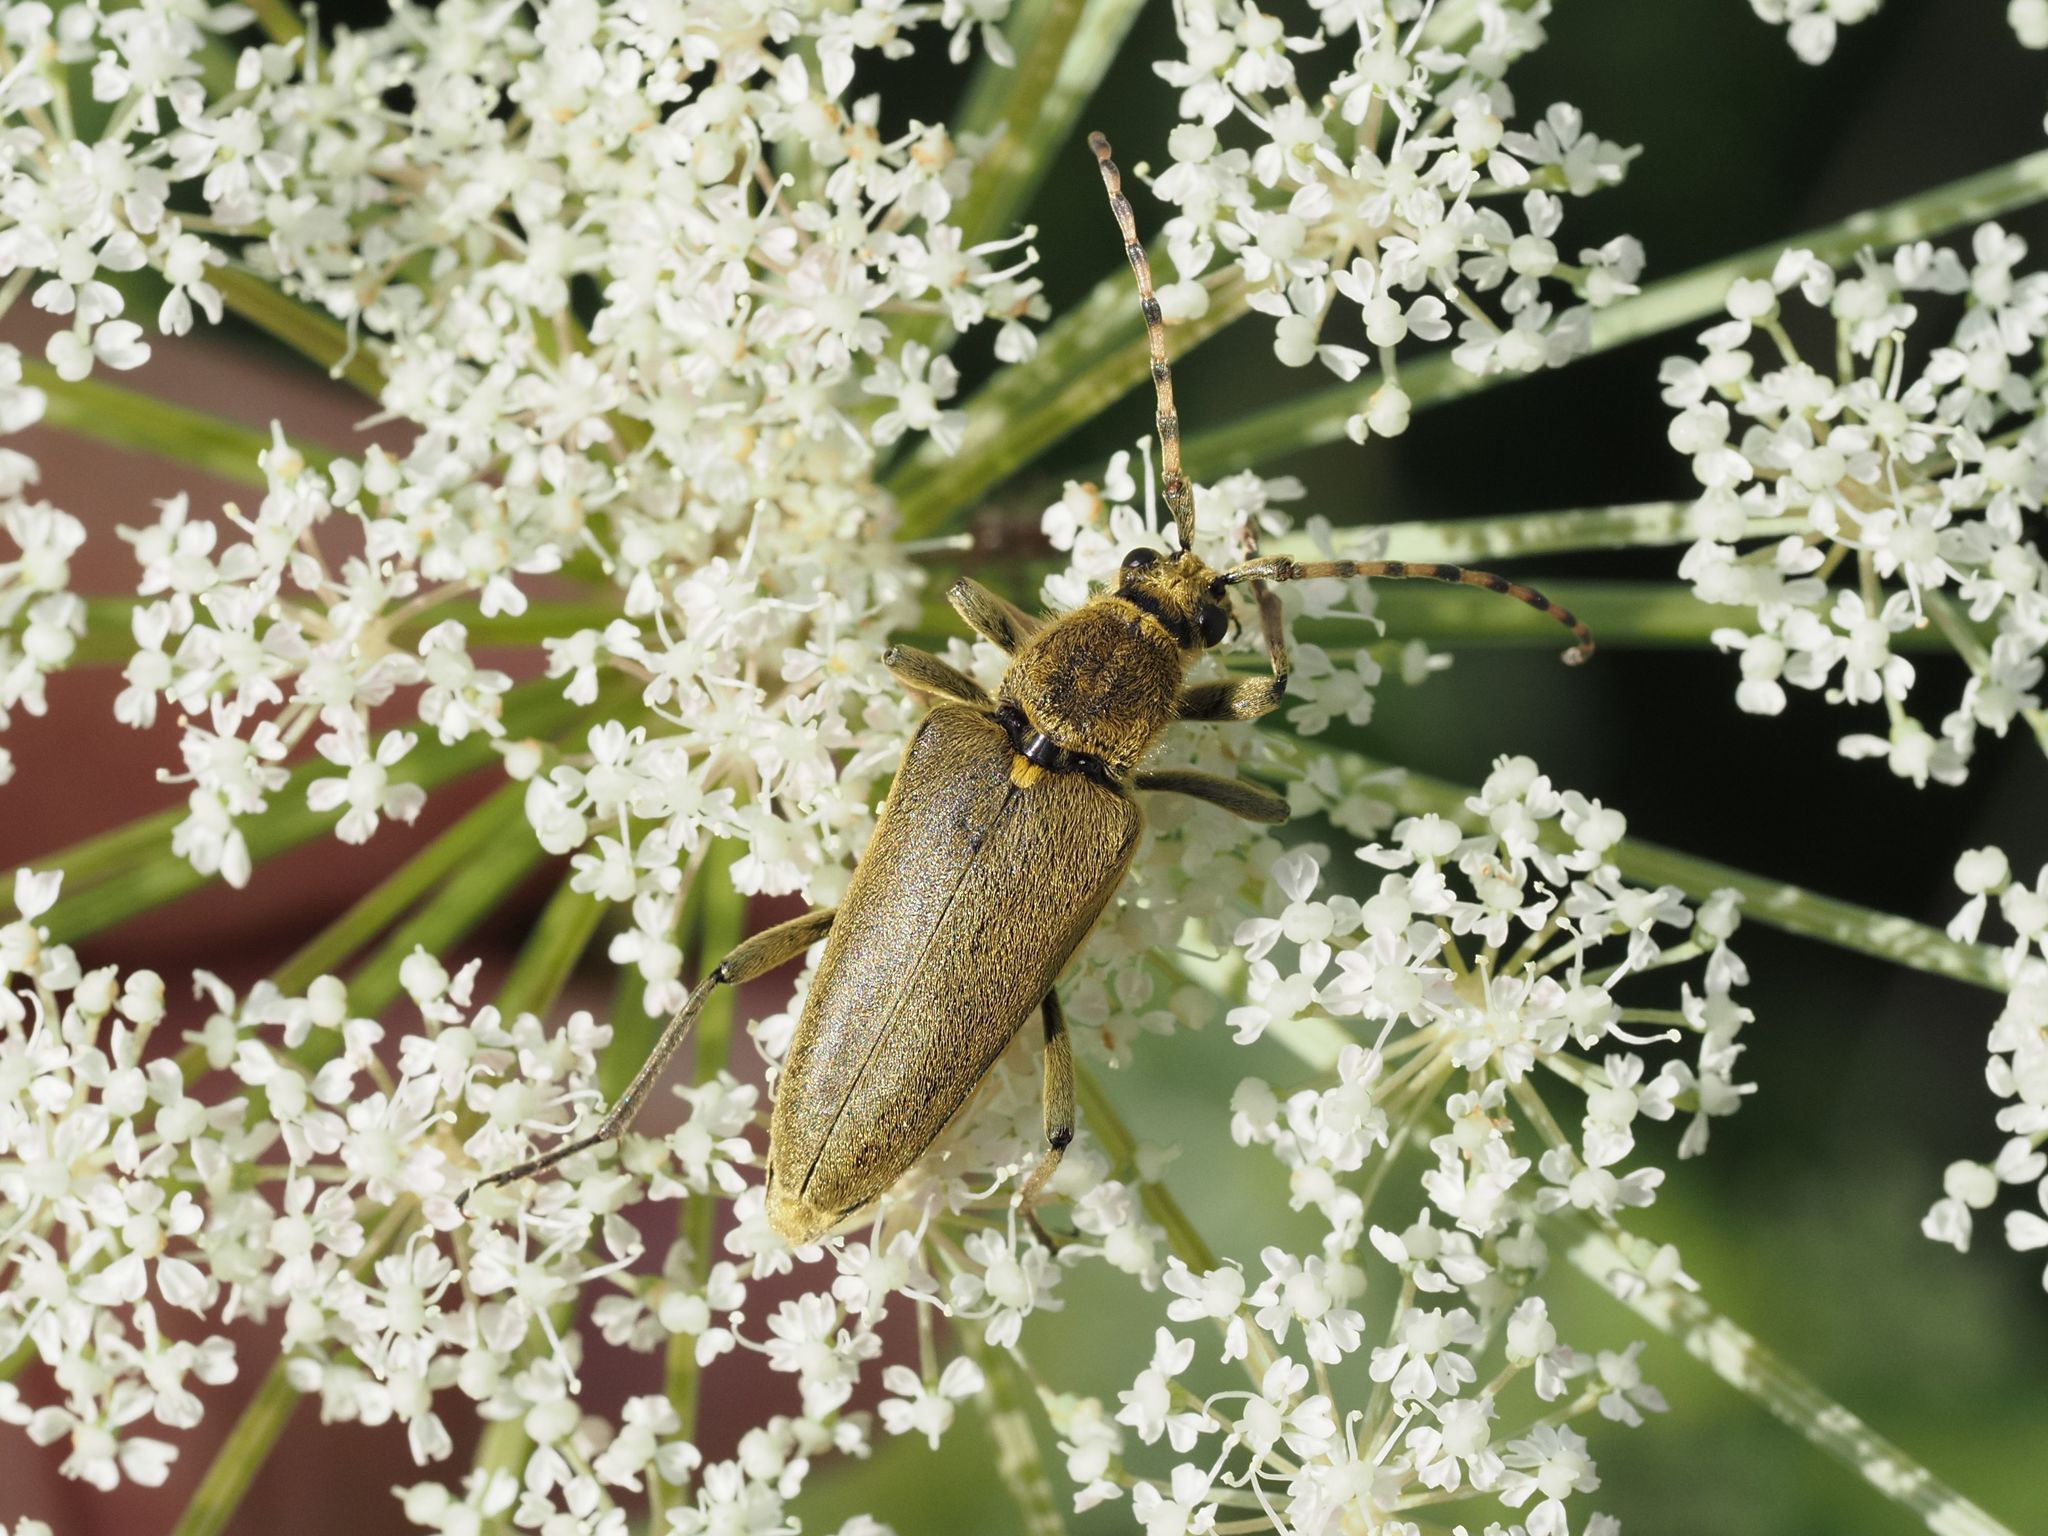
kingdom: Animalia
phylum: Arthropoda
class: Insecta
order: Coleoptera
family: Cerambycidae
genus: Lepturobosca
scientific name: Lepturobosca virens
